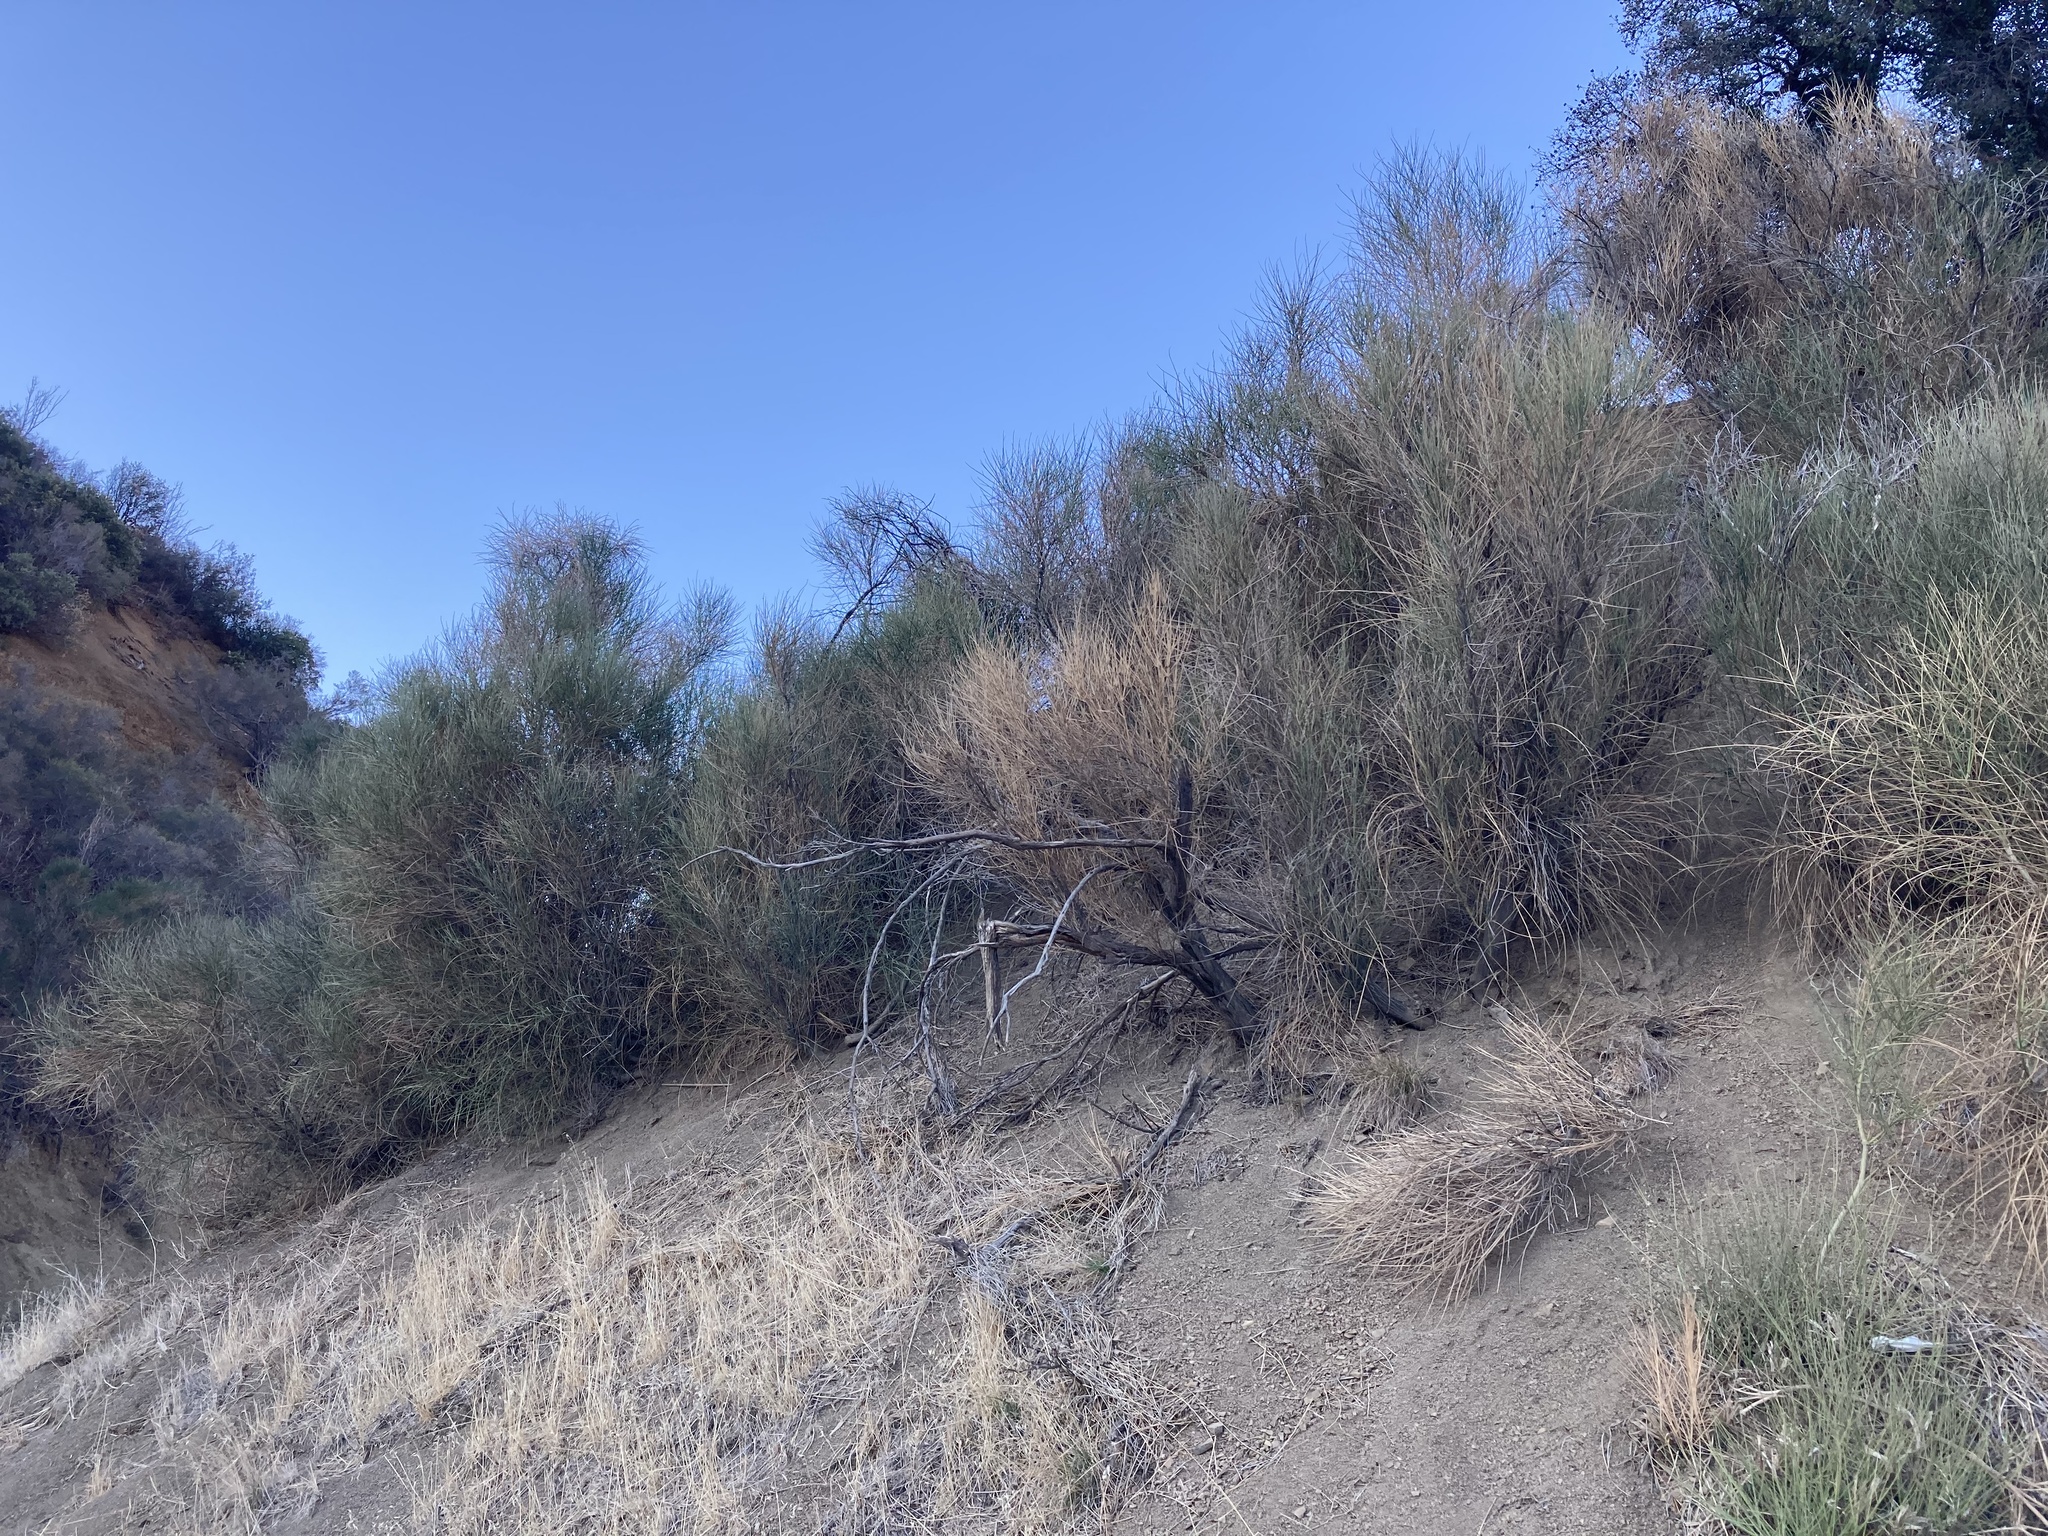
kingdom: Plantae
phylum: Tracheophyta
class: Magnoliopsida
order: Fabales
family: Fabaceae
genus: Spartium
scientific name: Spartium junceum
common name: Spanish broom
